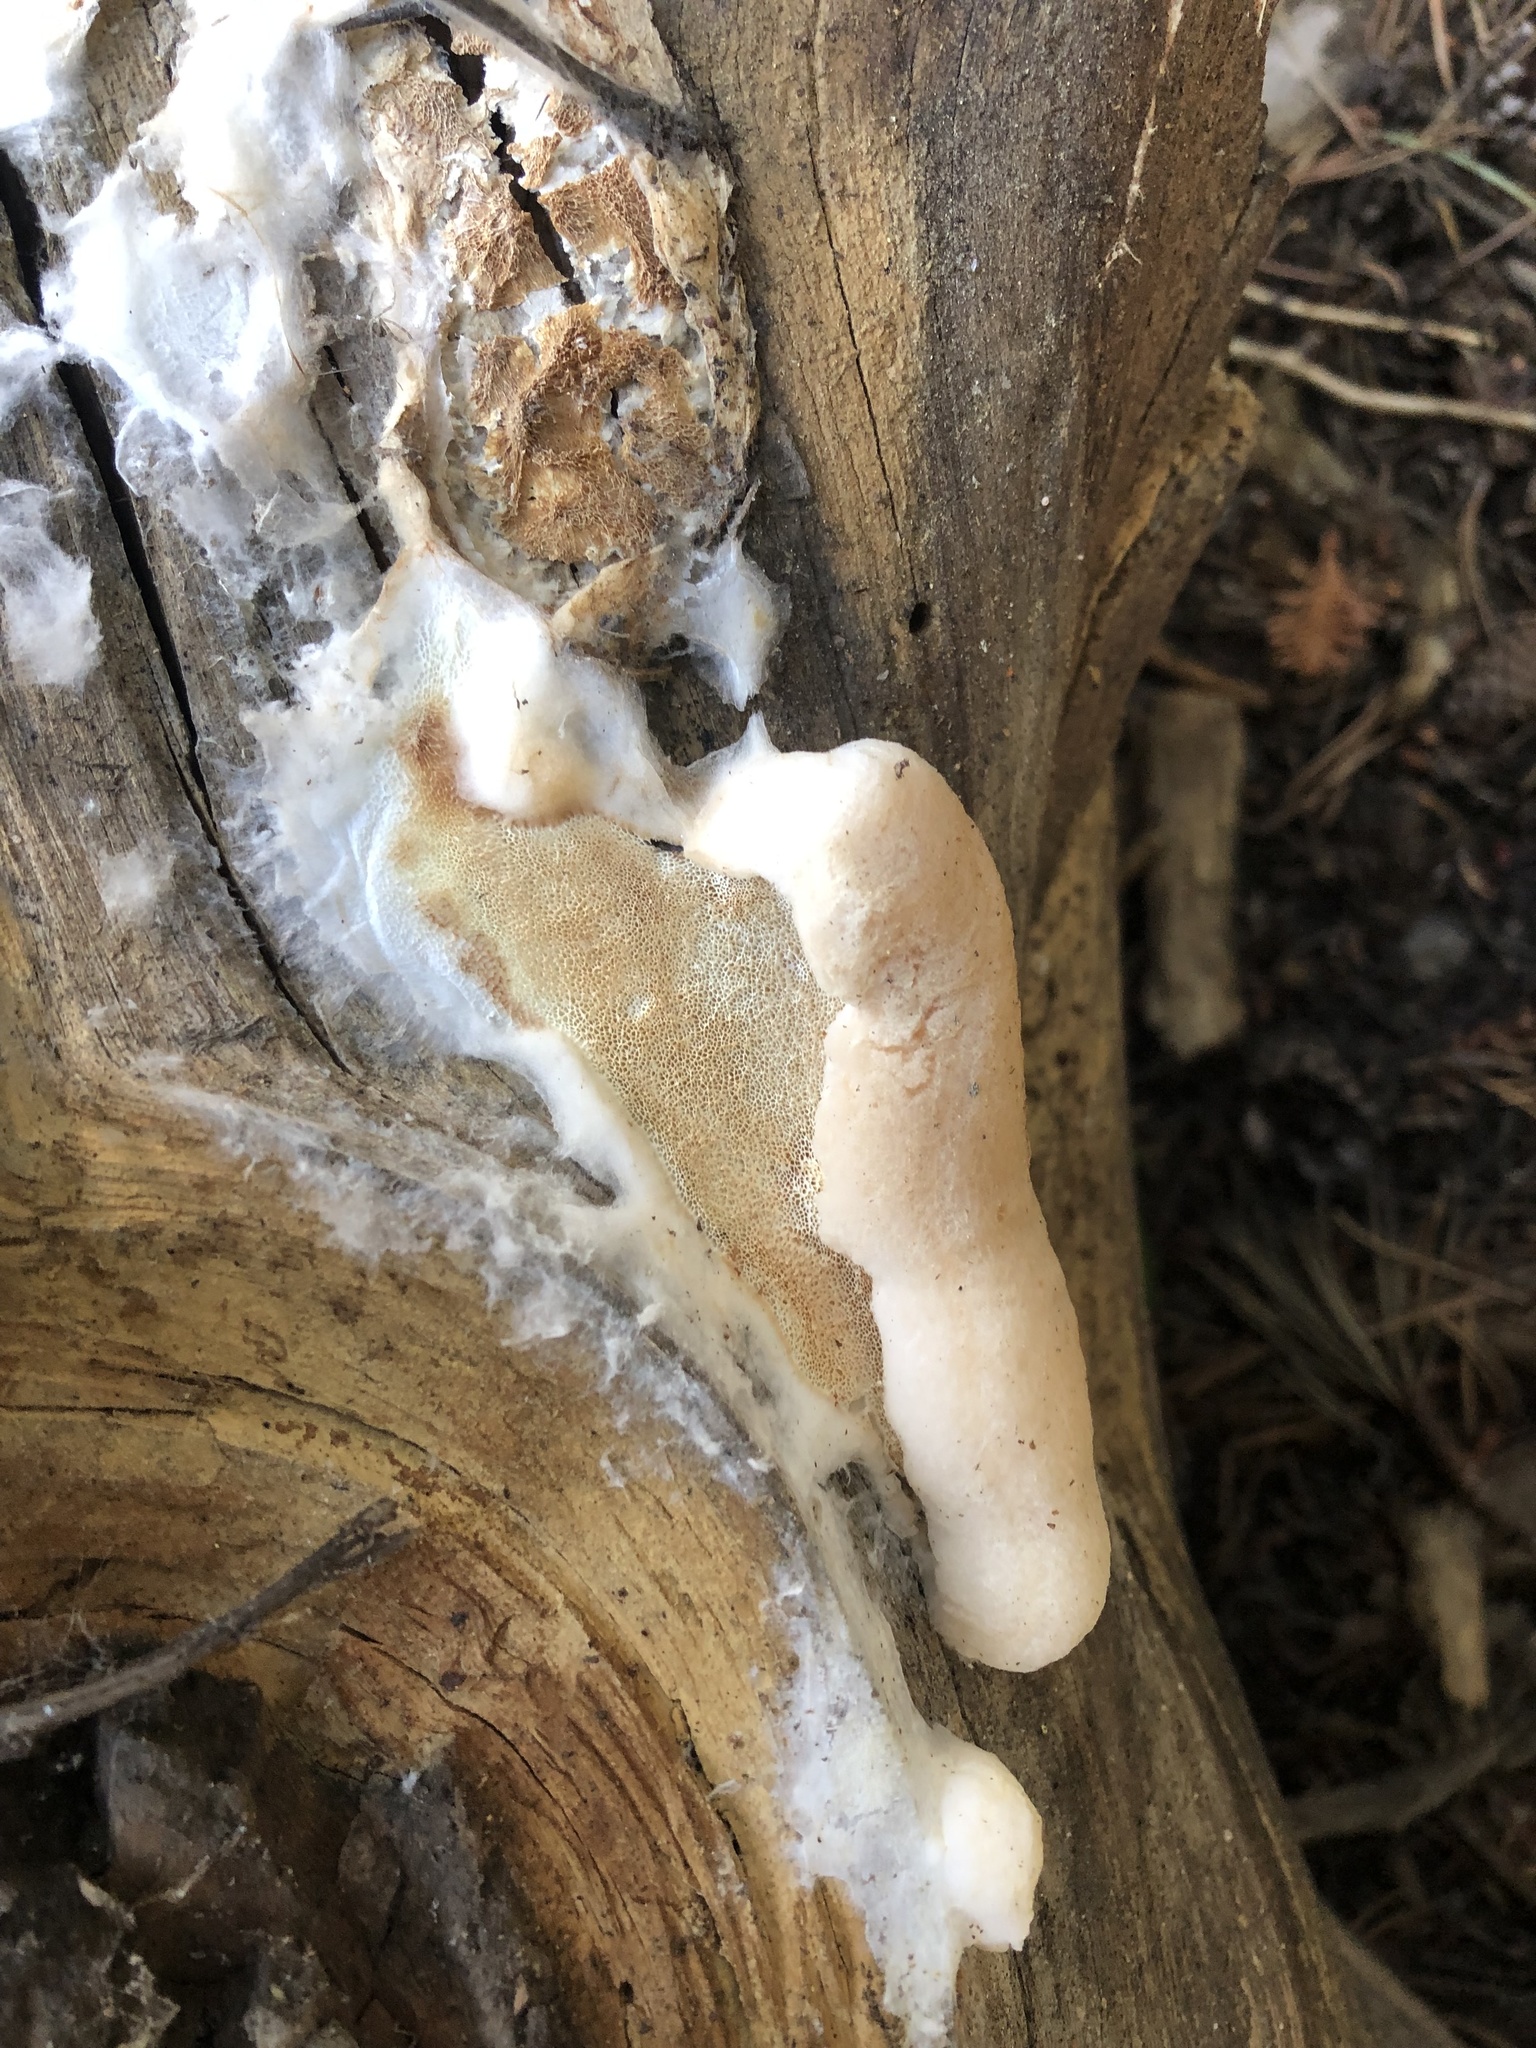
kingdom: Fungi
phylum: Basidiomycota
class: Agaricomycetes
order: Polyporales
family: Incrustoporiaceae
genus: Tyromyces
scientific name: Tyromyces leucospongius
